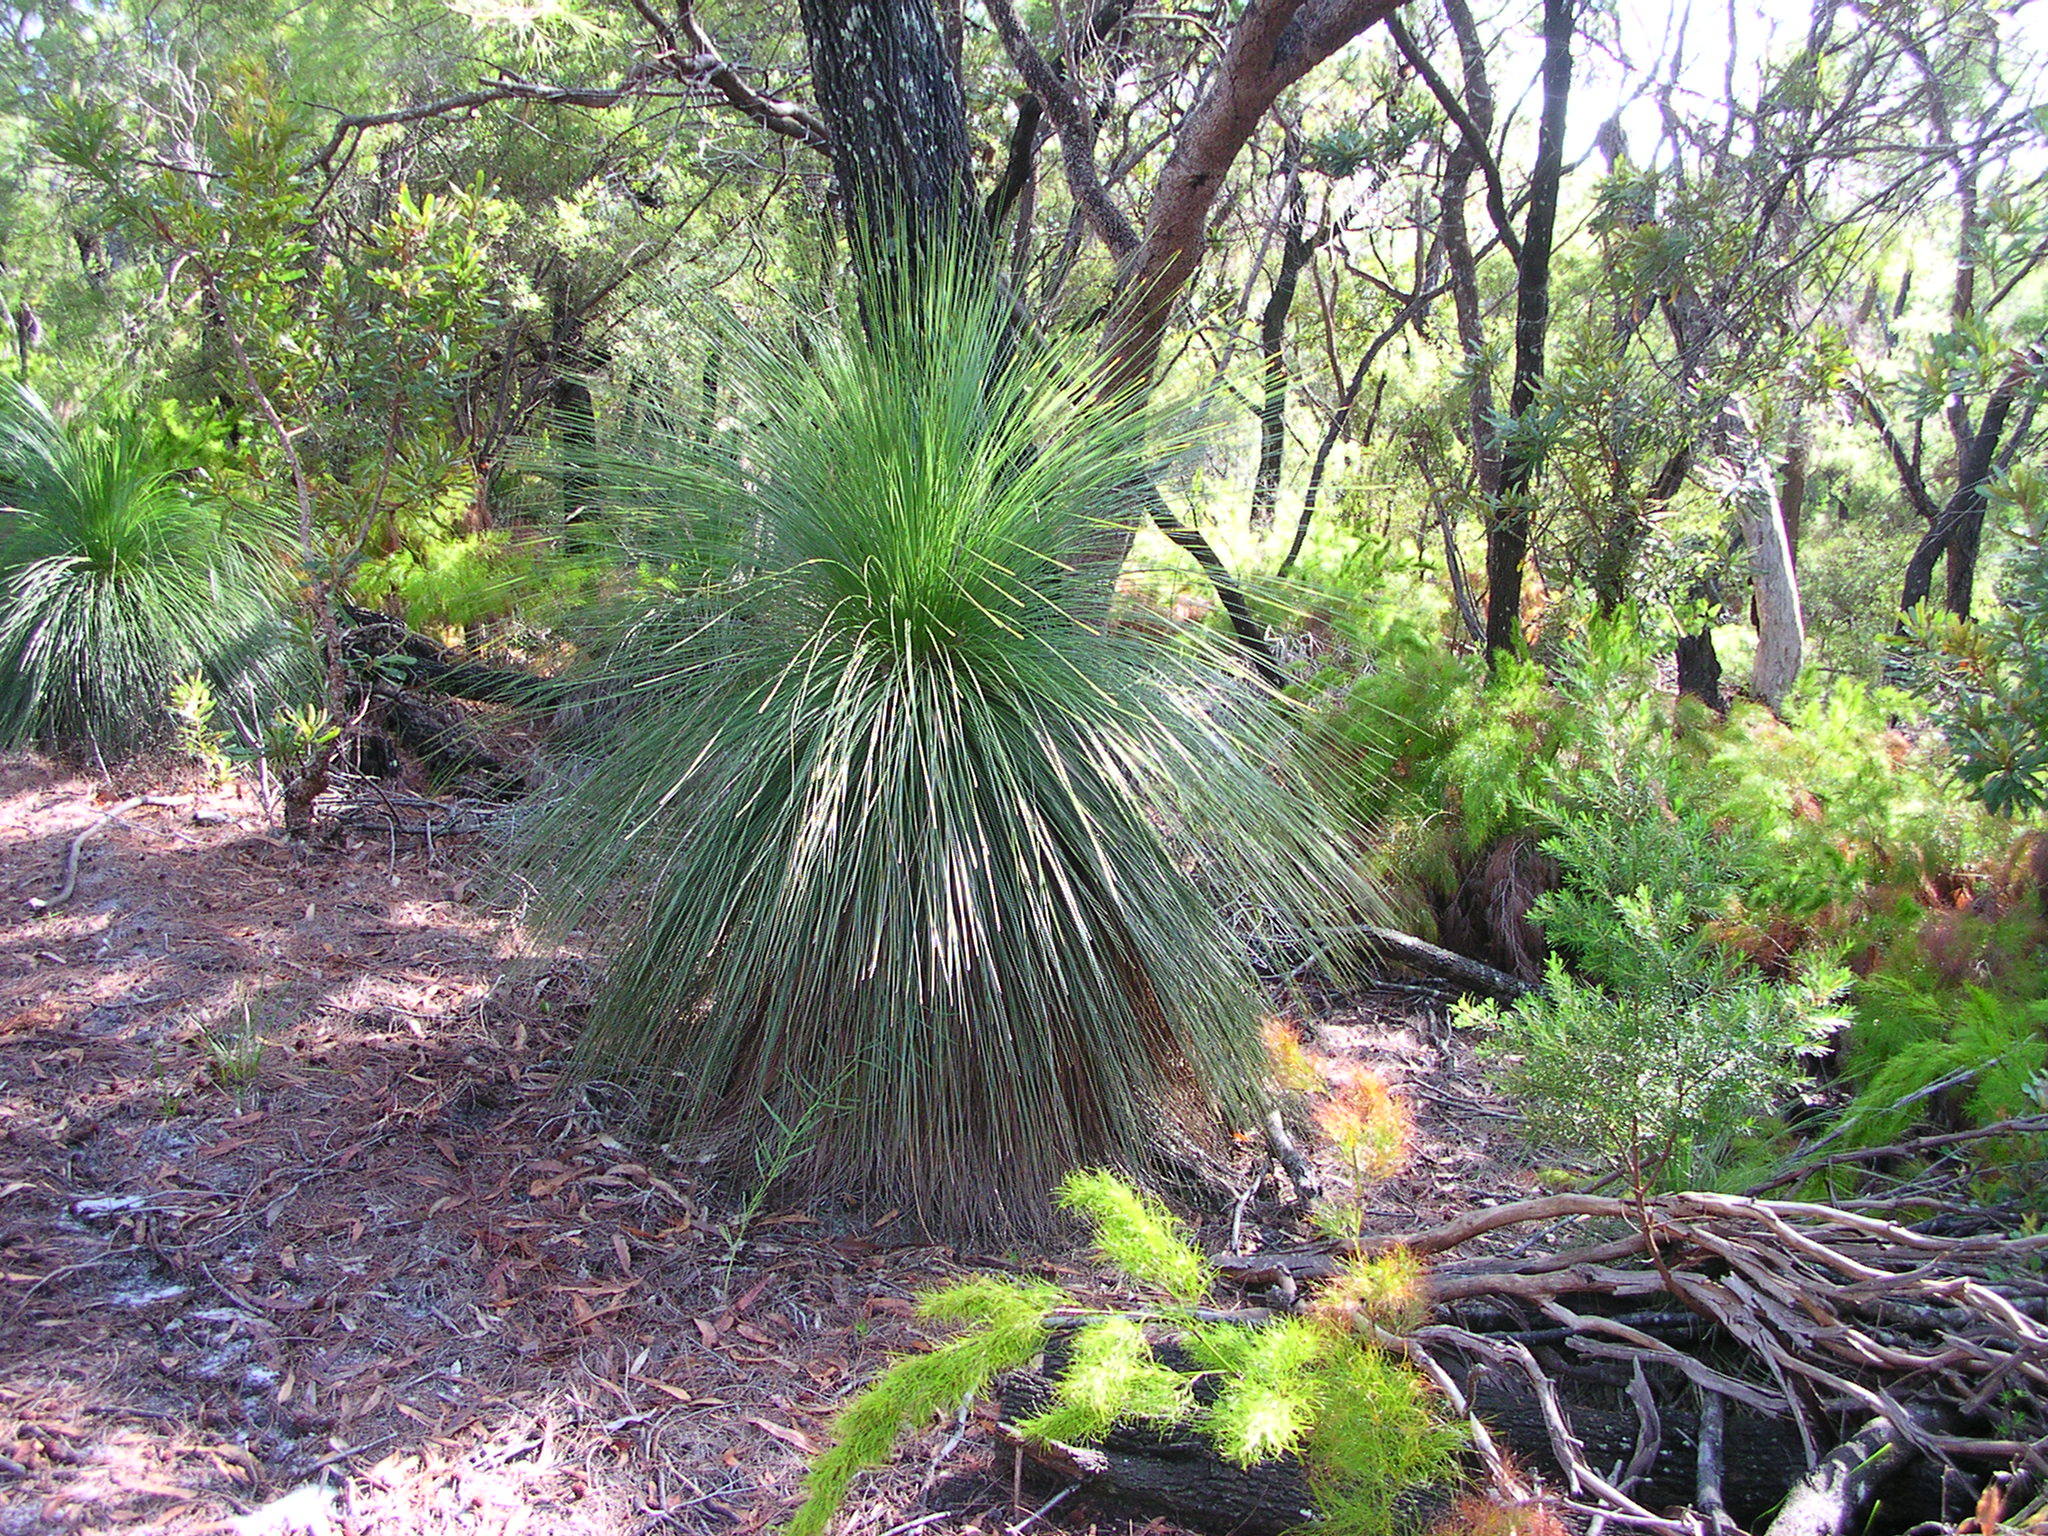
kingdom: Plantae
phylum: Tracheophyta
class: Liliopsida
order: Asparagales
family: Asphodelaceae
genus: Xanthorrhoea
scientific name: Xanthorrhoea johnsonii
